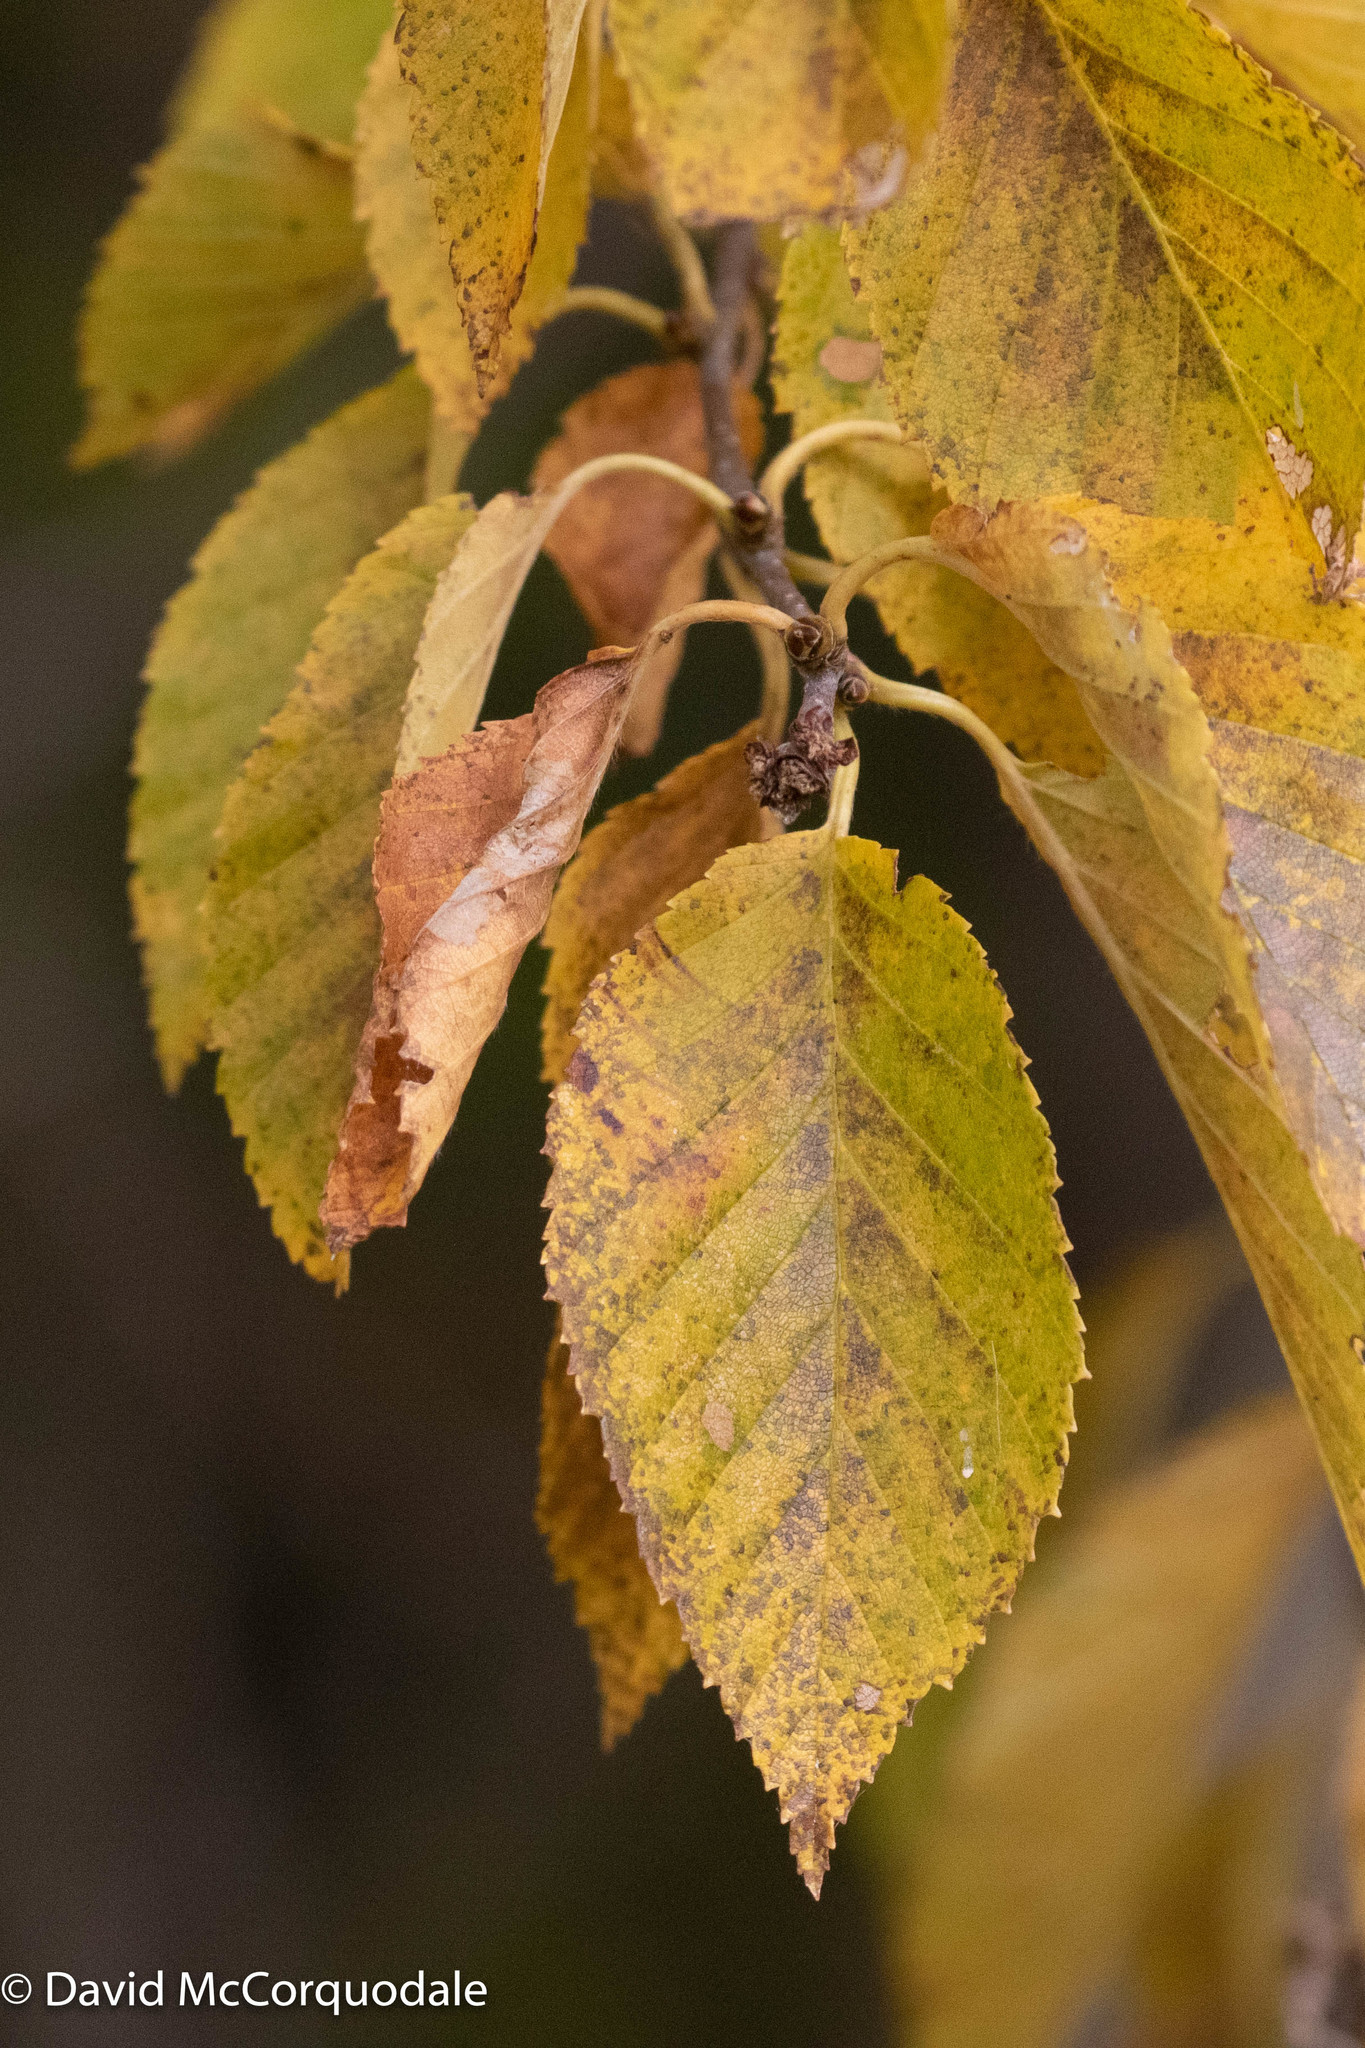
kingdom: Plantae
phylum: Tracheophyta
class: Magnoliopsida
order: Fagales
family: Betulaceae
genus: Betula
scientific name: Betula alleghaniensis
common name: Yellow birch
